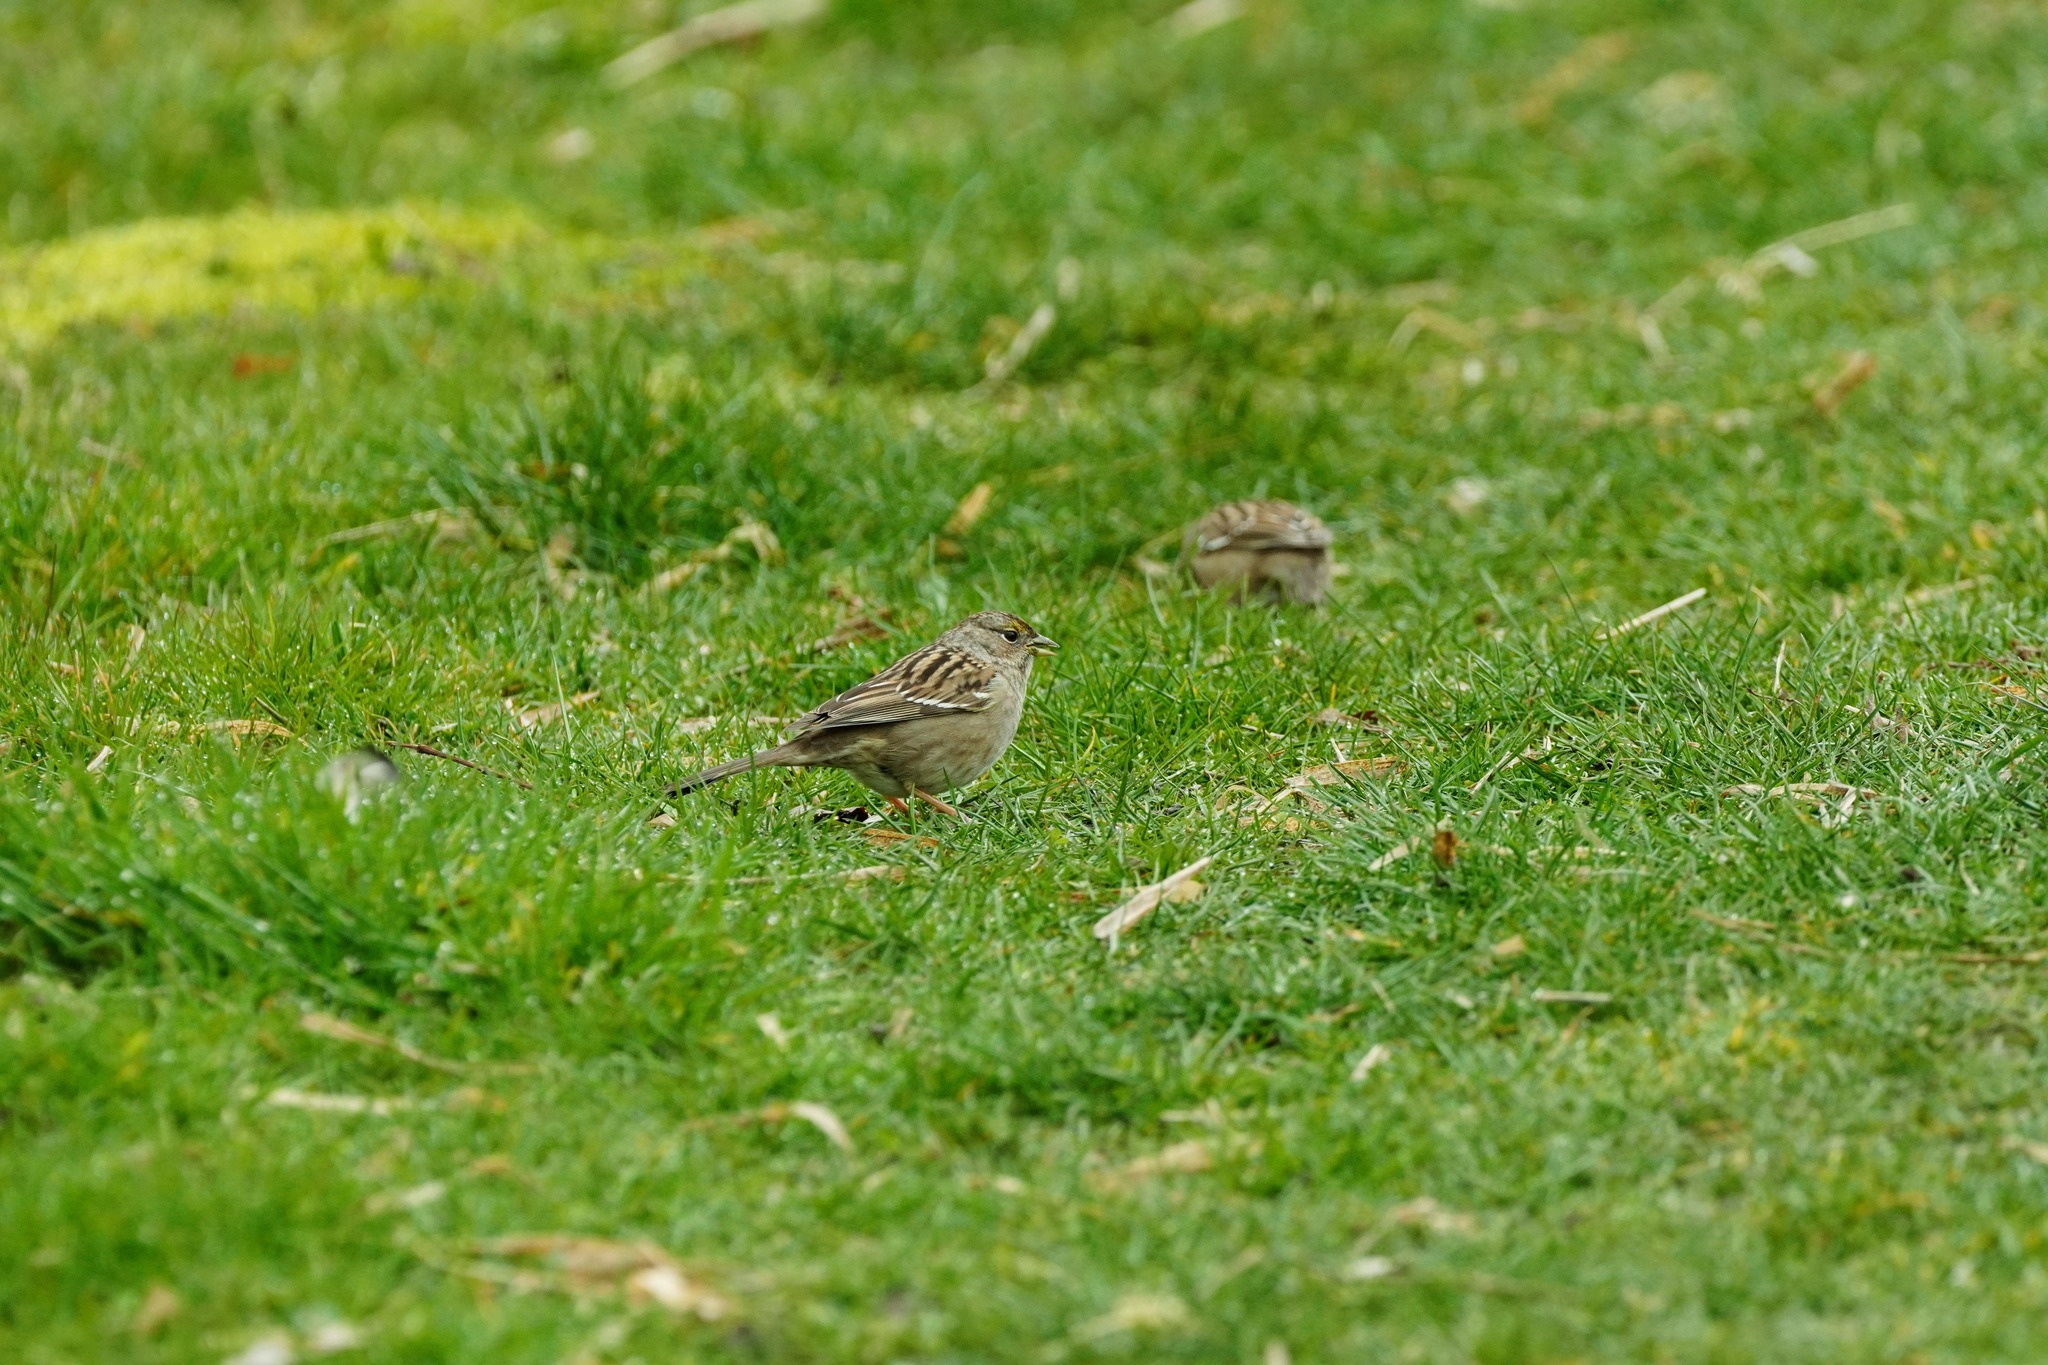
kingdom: Animalia
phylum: Chordata
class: Aves
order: Passeriformes
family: Passerellidae
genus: Zonotrichia
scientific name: Zonotrichia atricapilla
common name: Golden-crowned sparrow
